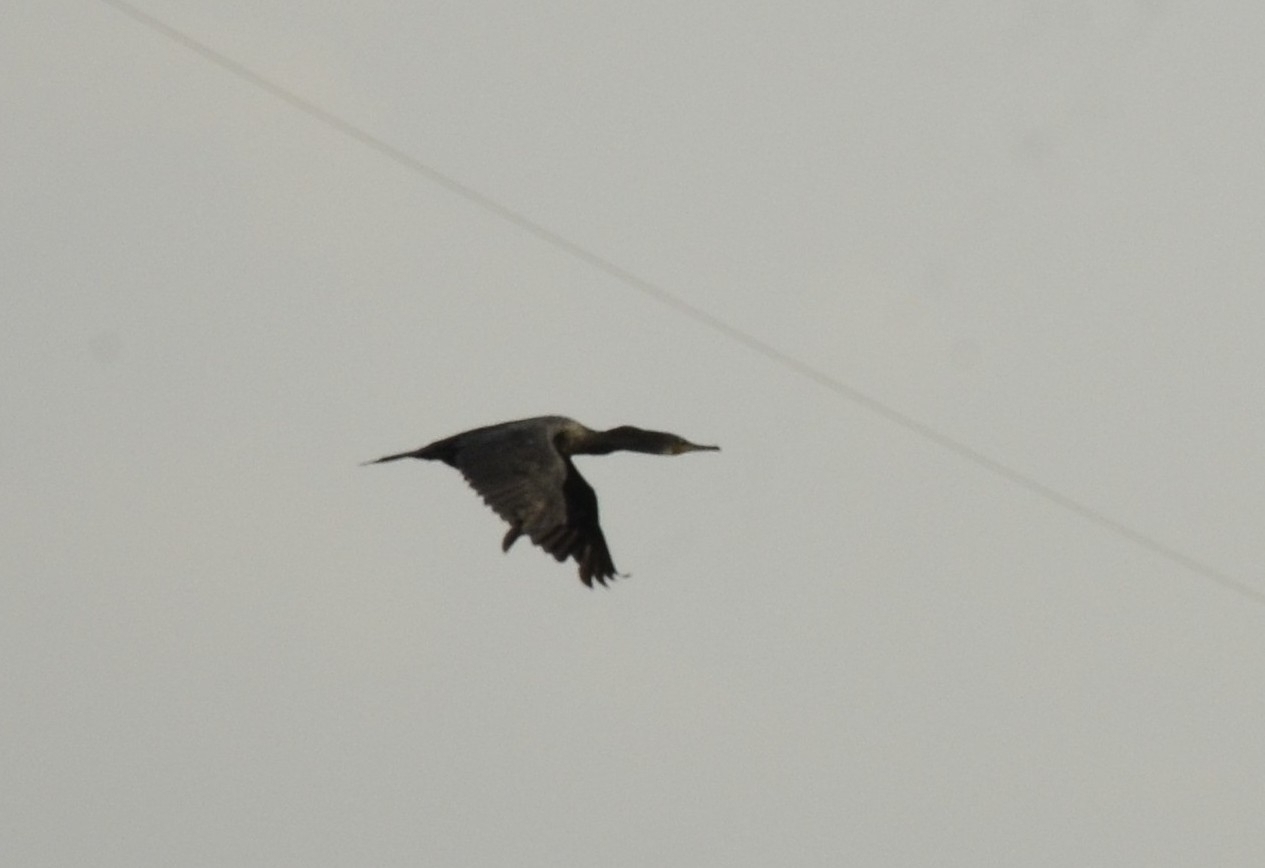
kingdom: Animalia
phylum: Chordata
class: Aves
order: Suliformes
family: Phalacrocoracidae
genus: Phalacrocorax
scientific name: Phalacrocorax fuscicollis
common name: Indian cormorant
